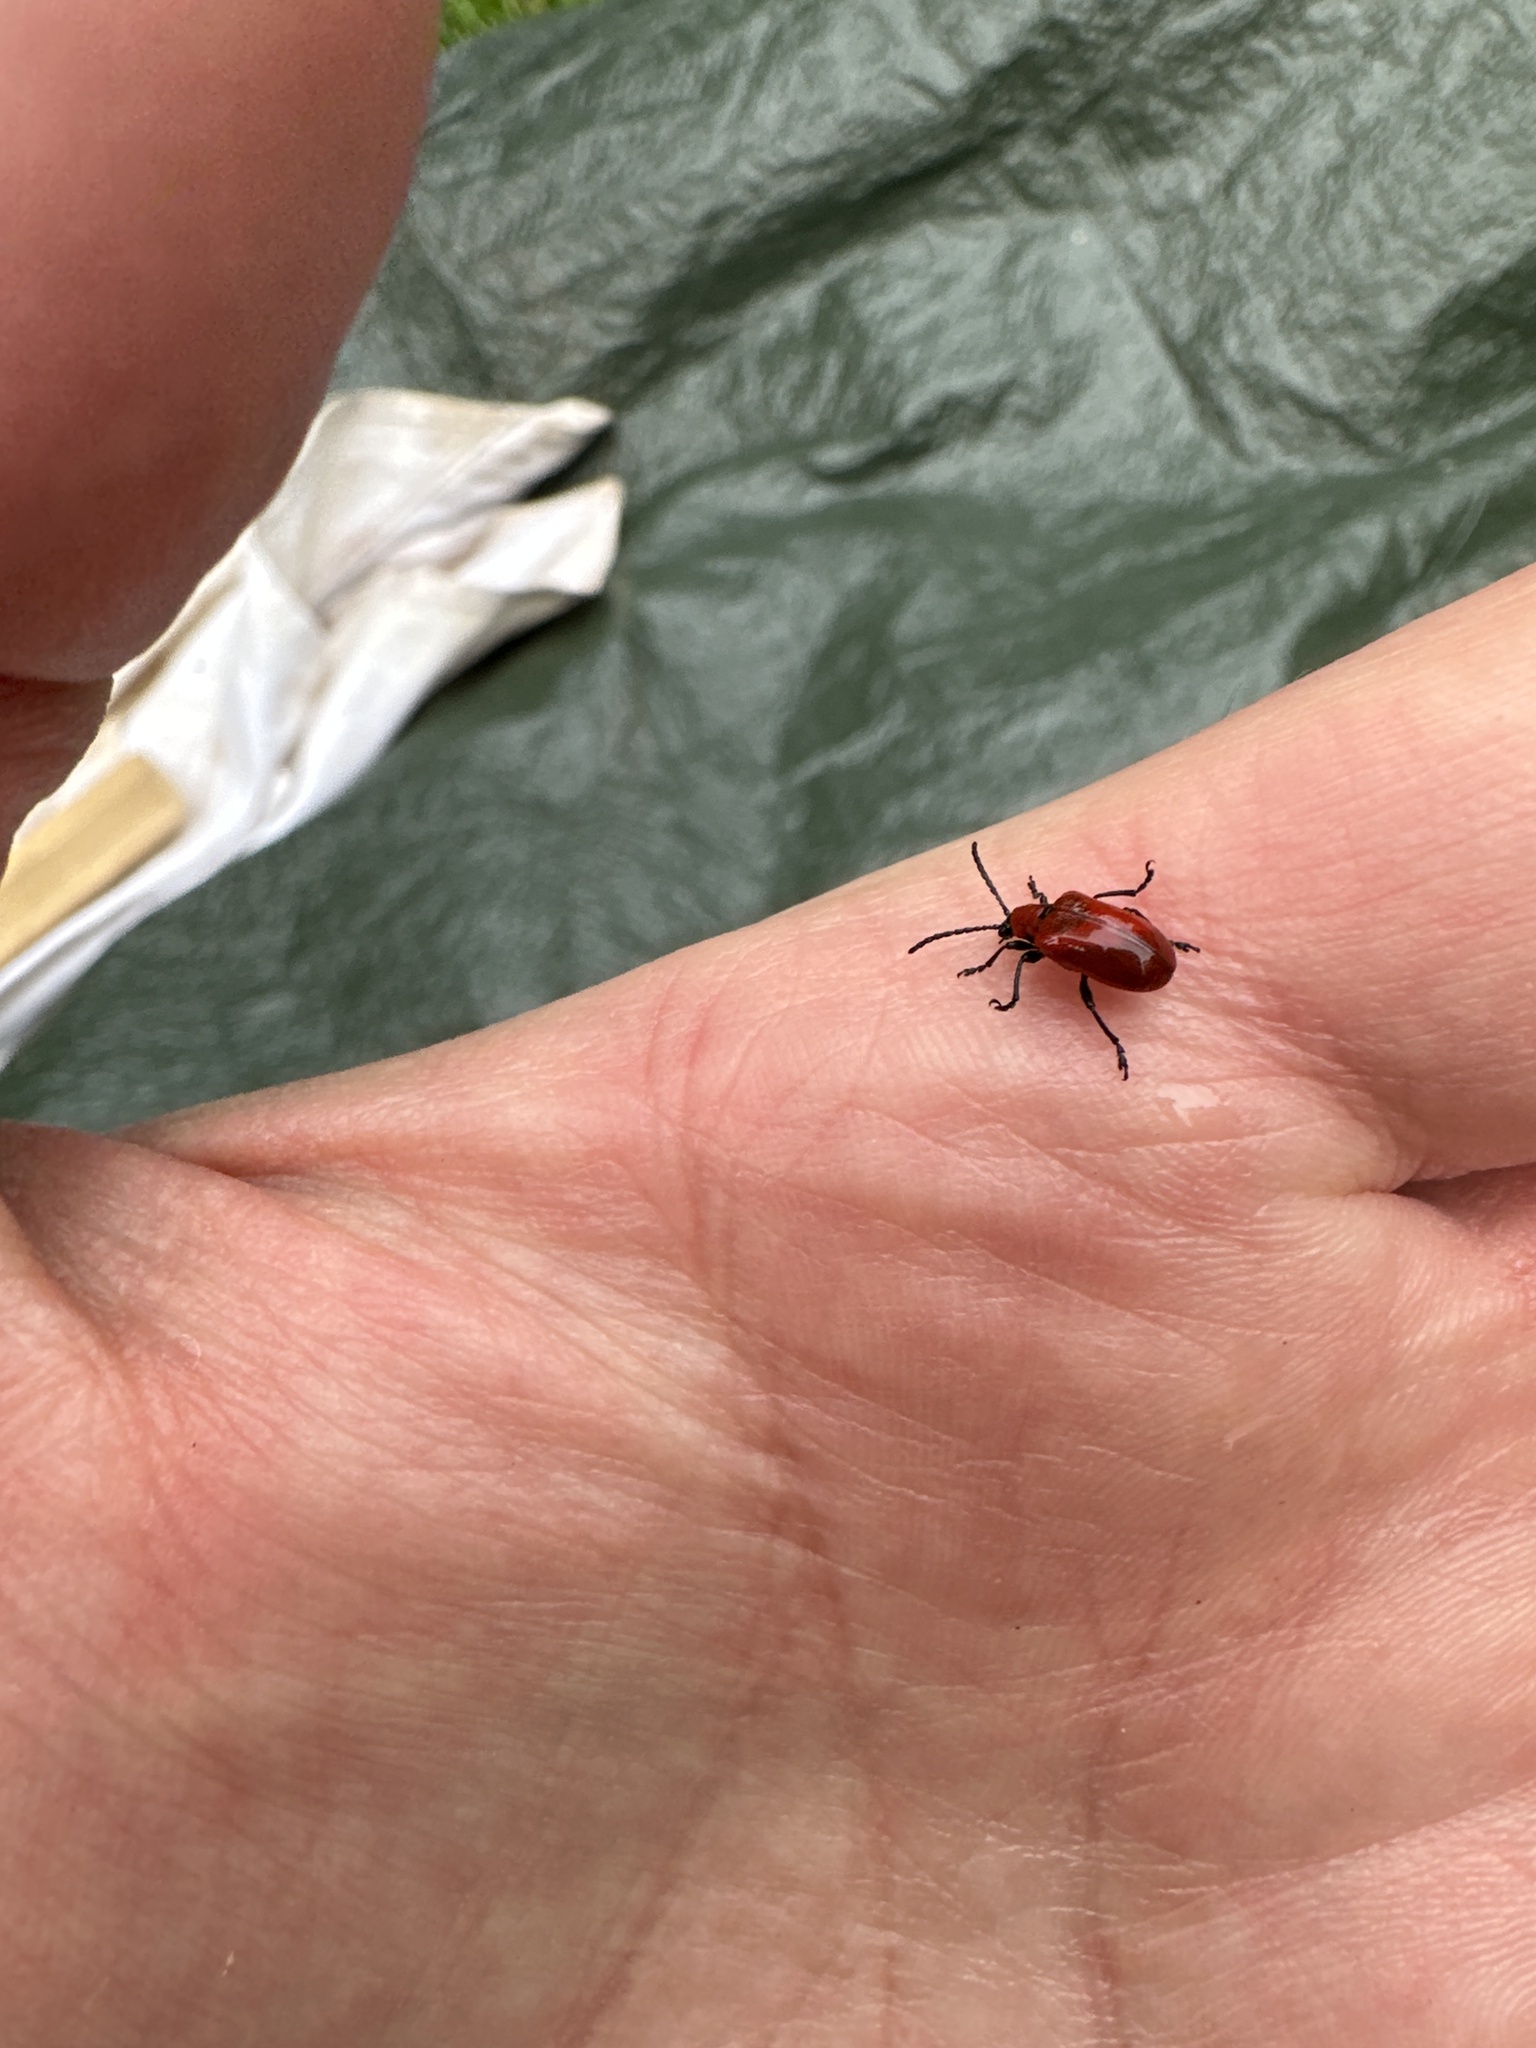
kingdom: Animalia
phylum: Arthropoda
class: Insecta
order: Coleoptera
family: Chrysomelidae
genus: Lilioceris
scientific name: Lilioceris lilii
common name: Lily beetle
